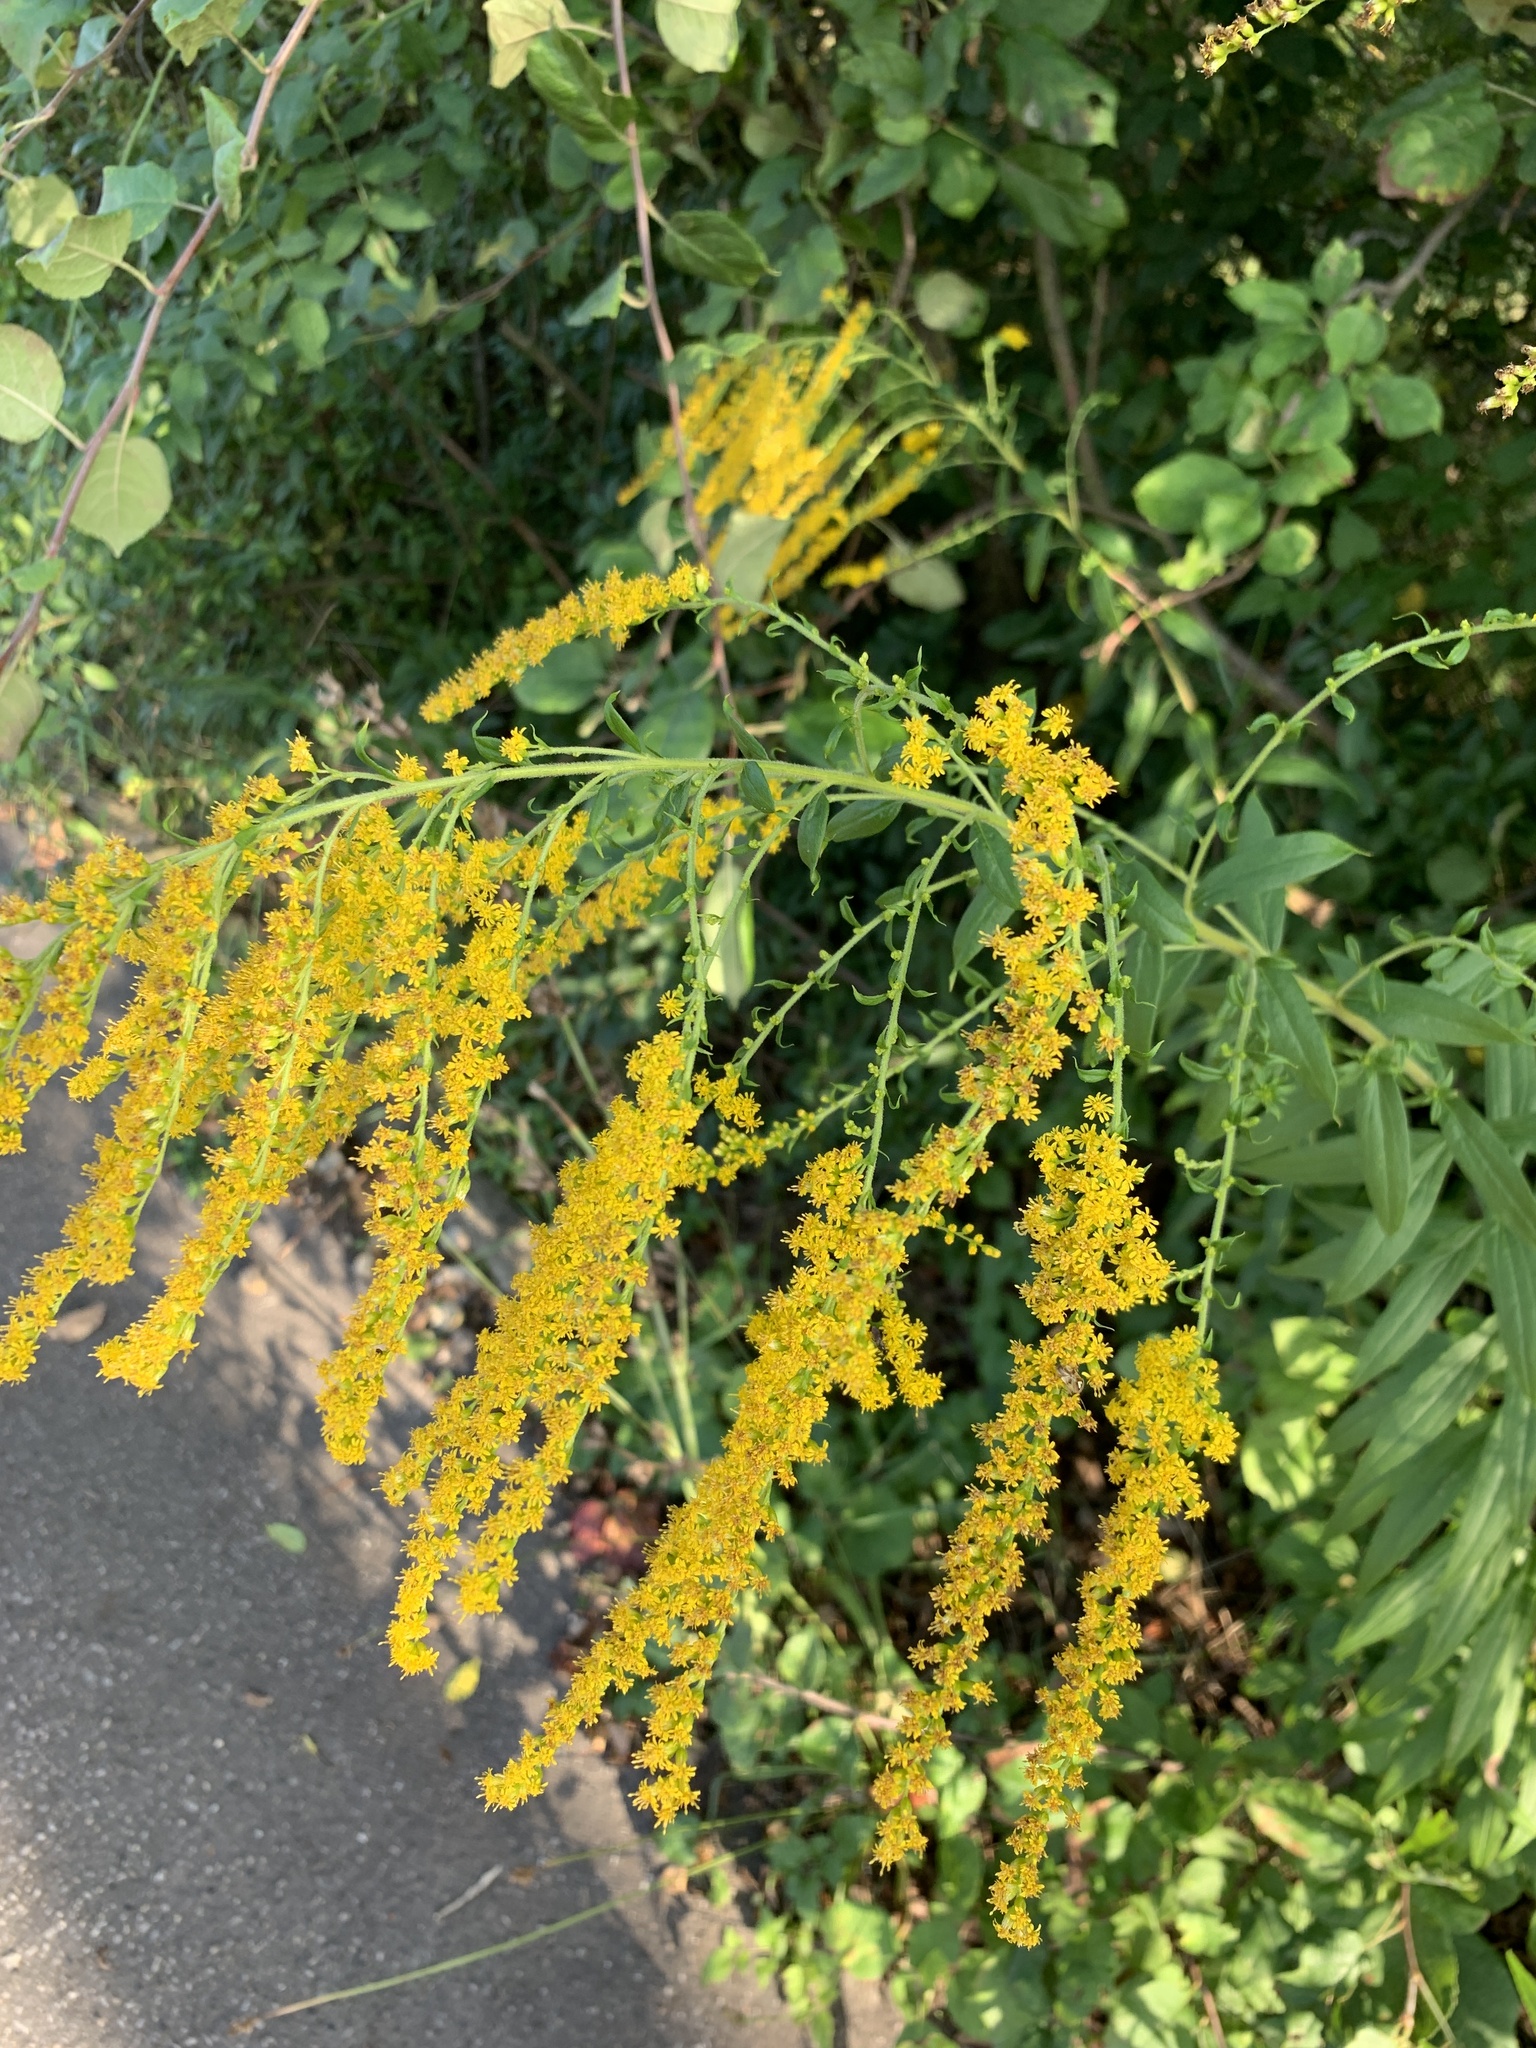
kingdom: Plantae
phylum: Tracheophyta
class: Magnoliopsida
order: Asterales
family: Asteraceae
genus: Solidago
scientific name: Solidago canadensis
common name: Canada goldenrod
